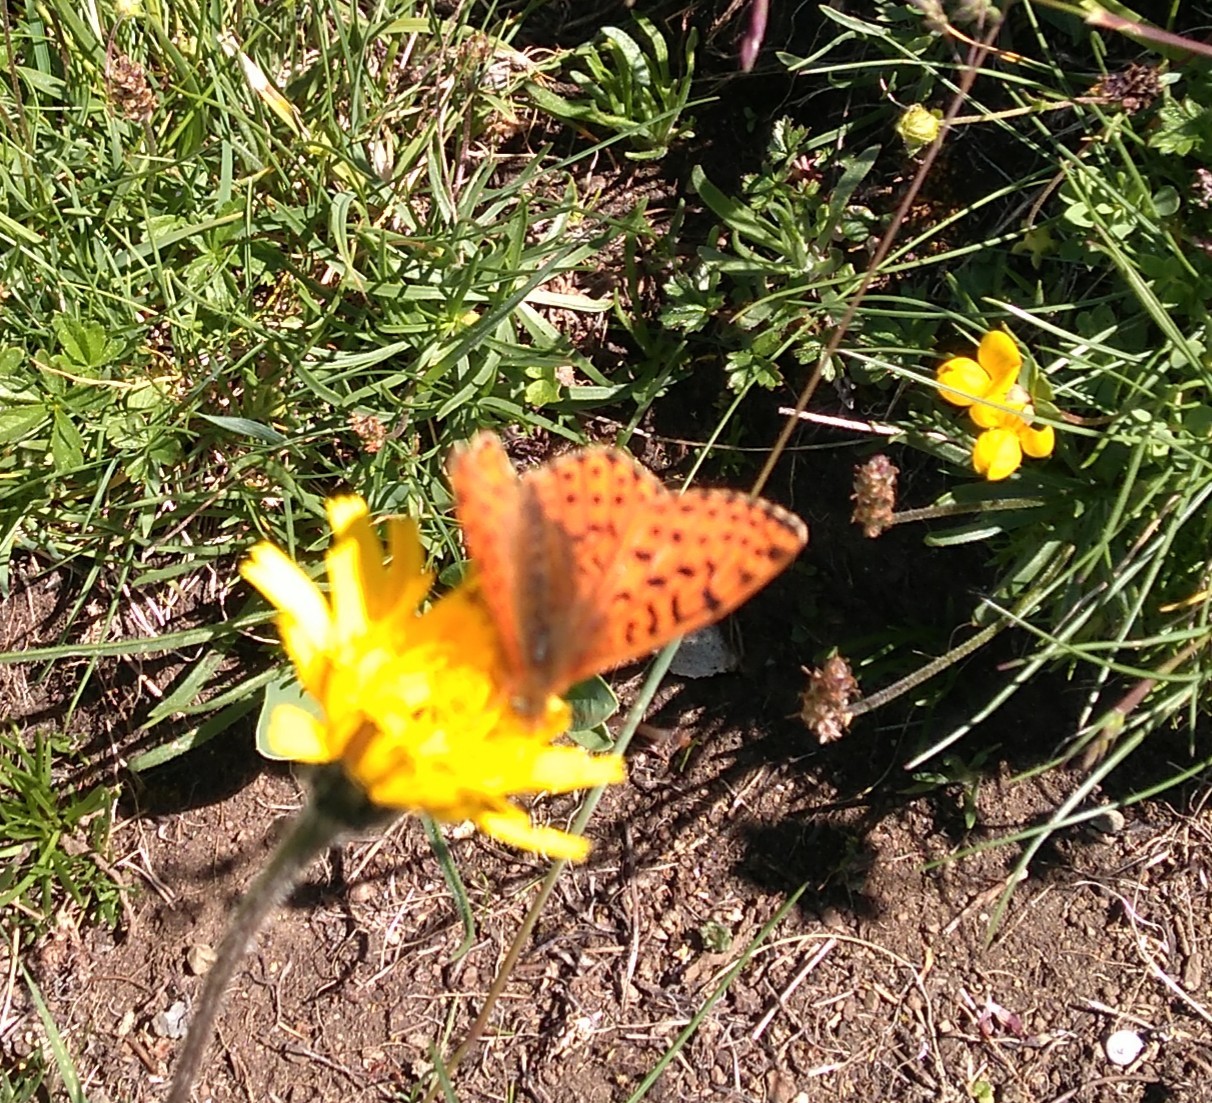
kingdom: Animalia
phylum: Arthropoda
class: Insecta
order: Lepidoptera
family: Nymphalidae
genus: Boloria
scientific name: Boloria pales
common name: Shepherd's fritillary
